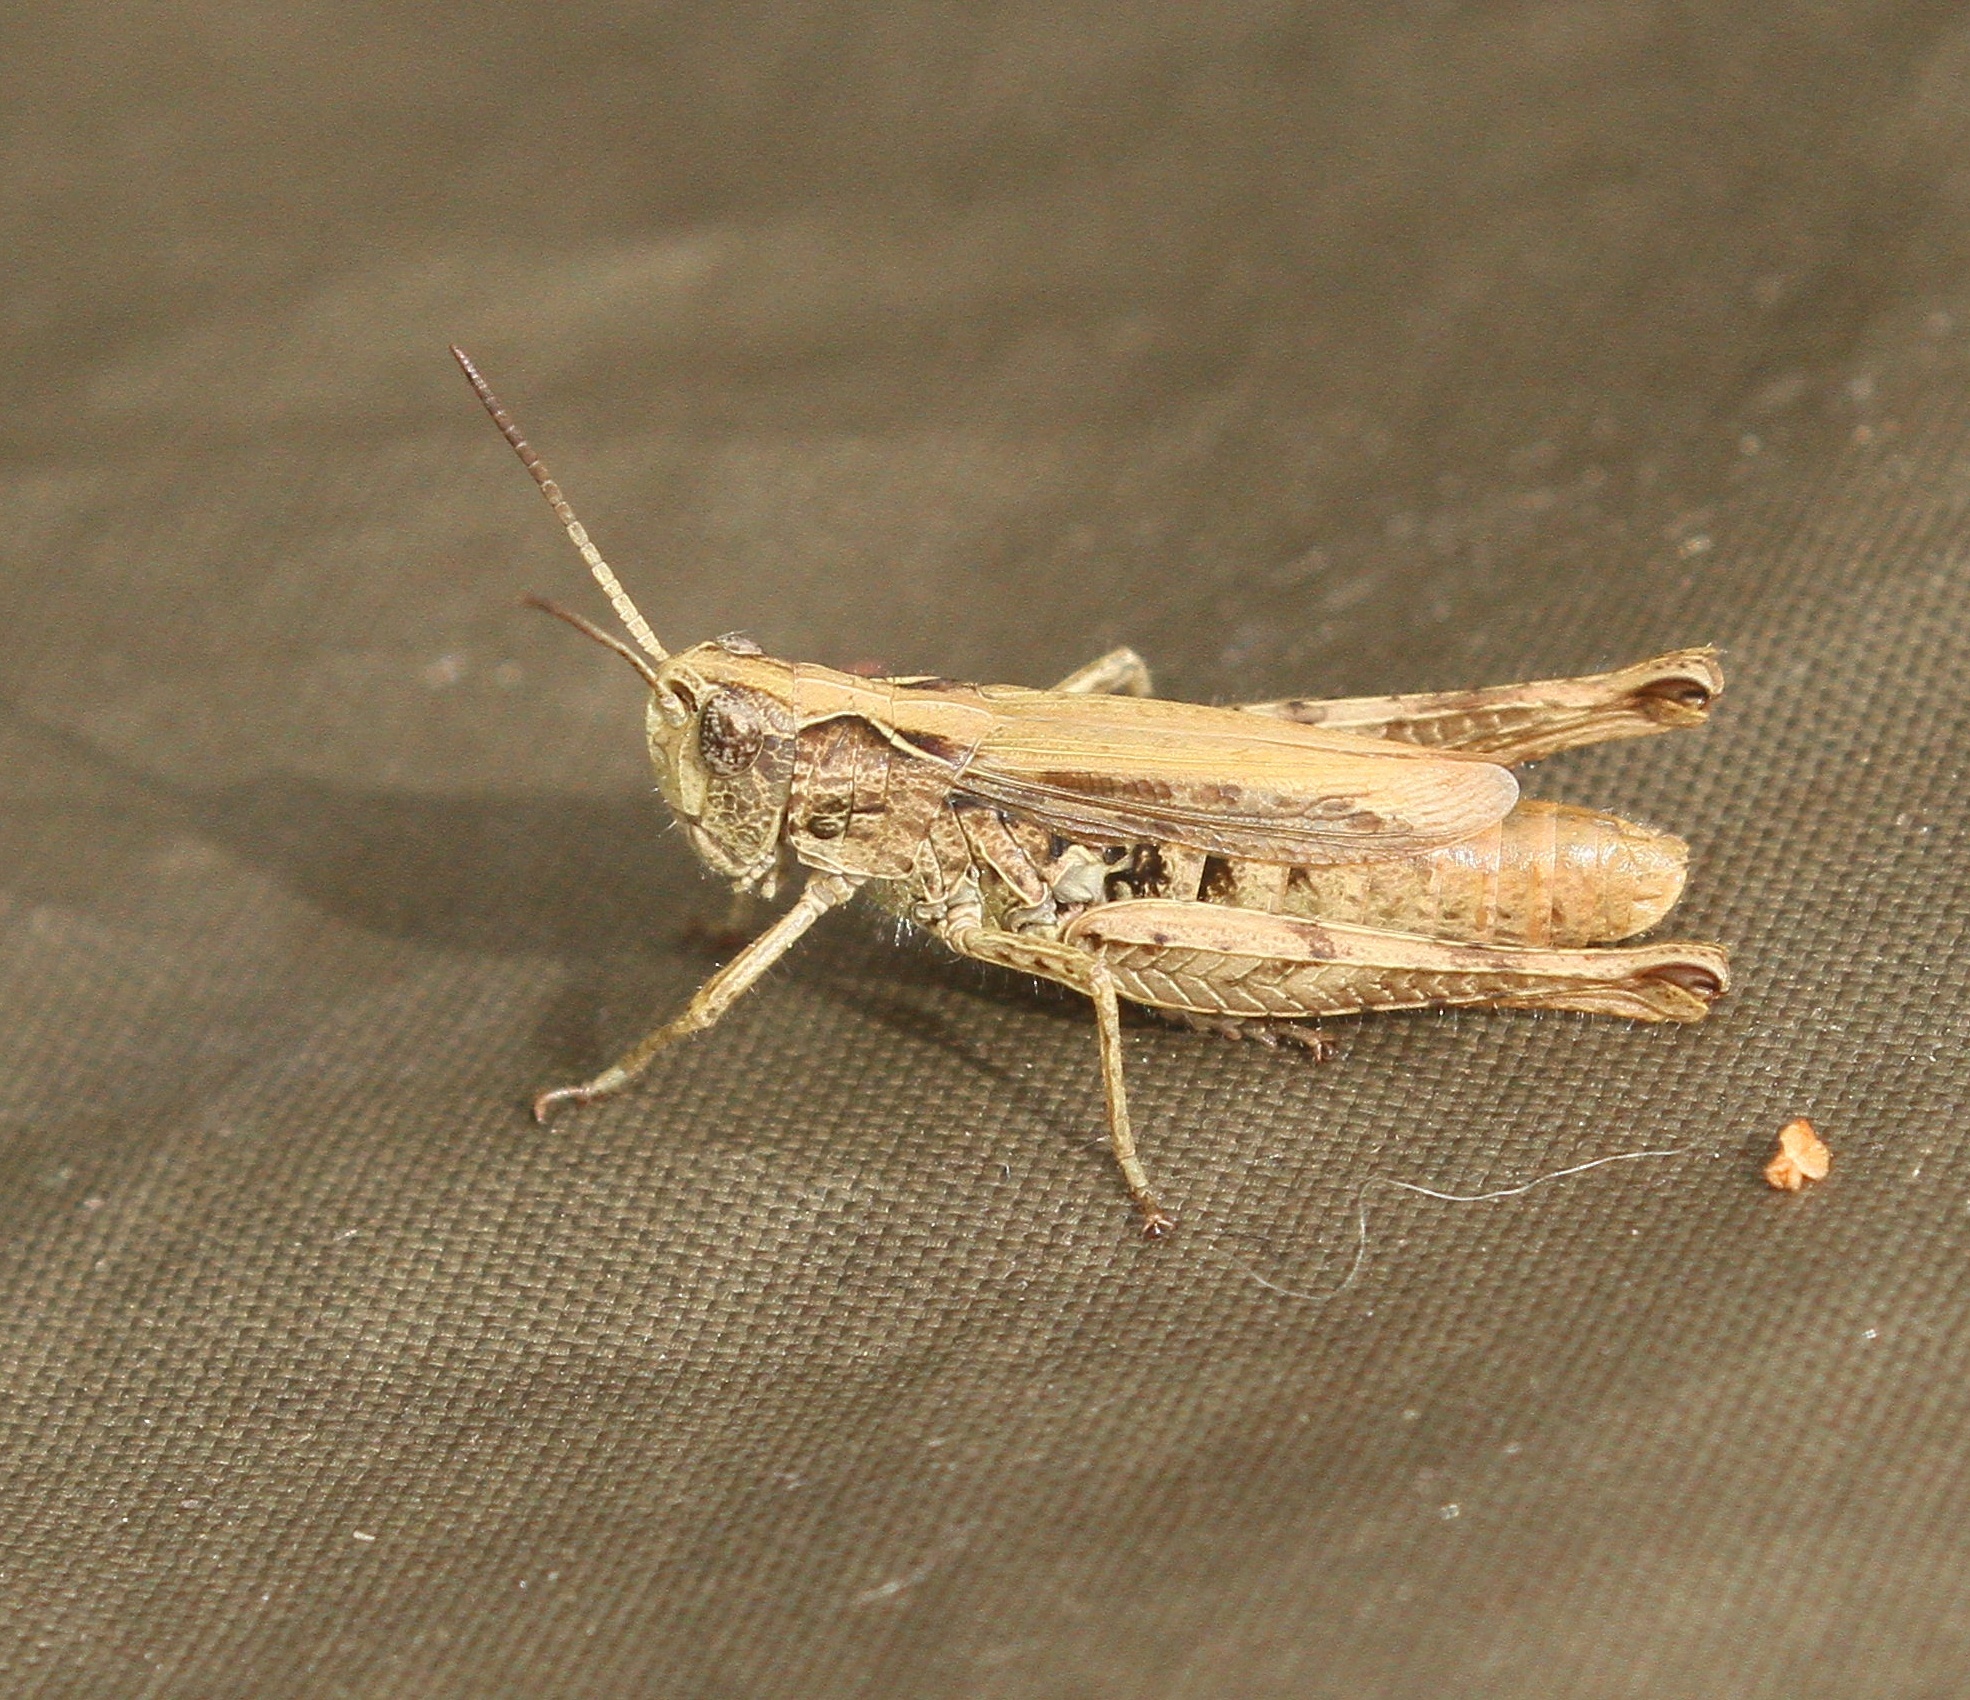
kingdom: Animalia
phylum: Arthropoda
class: Insecta
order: Orthoptera
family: Acrididae
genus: Chorthippus
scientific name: Chorthippus apricarius
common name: Upland field grasshopper
